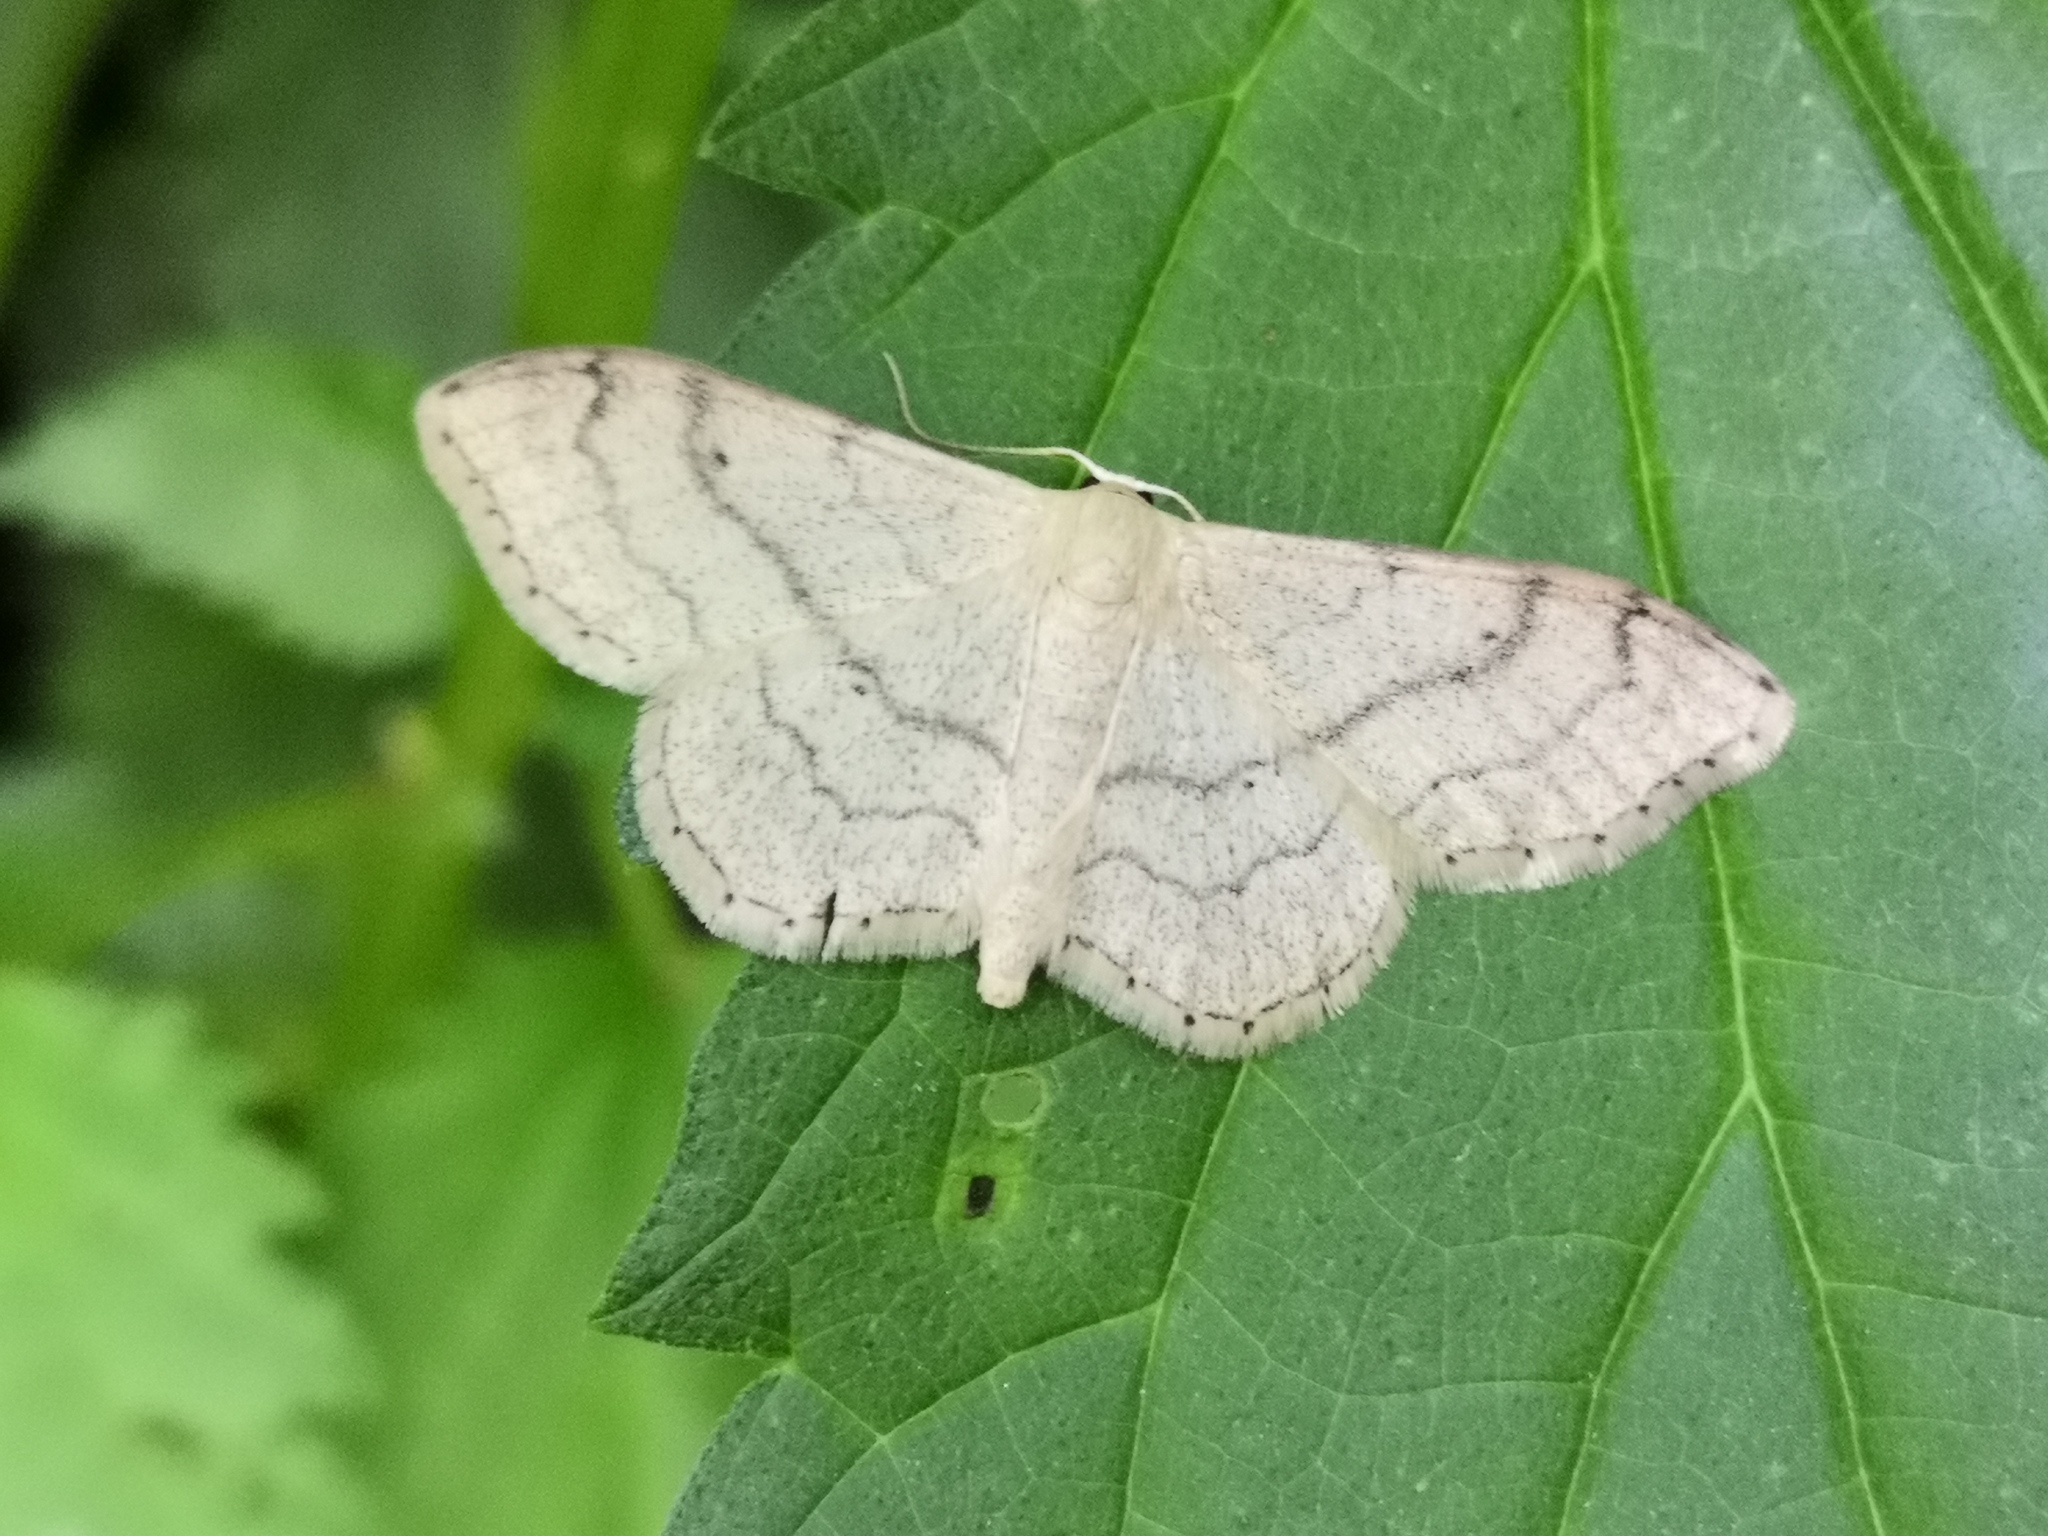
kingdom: Animalia
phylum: Arthropoda
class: Insecta
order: Lepidoptera
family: Geometridae
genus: Idaea
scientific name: Idaea aversata
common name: Riband wave
